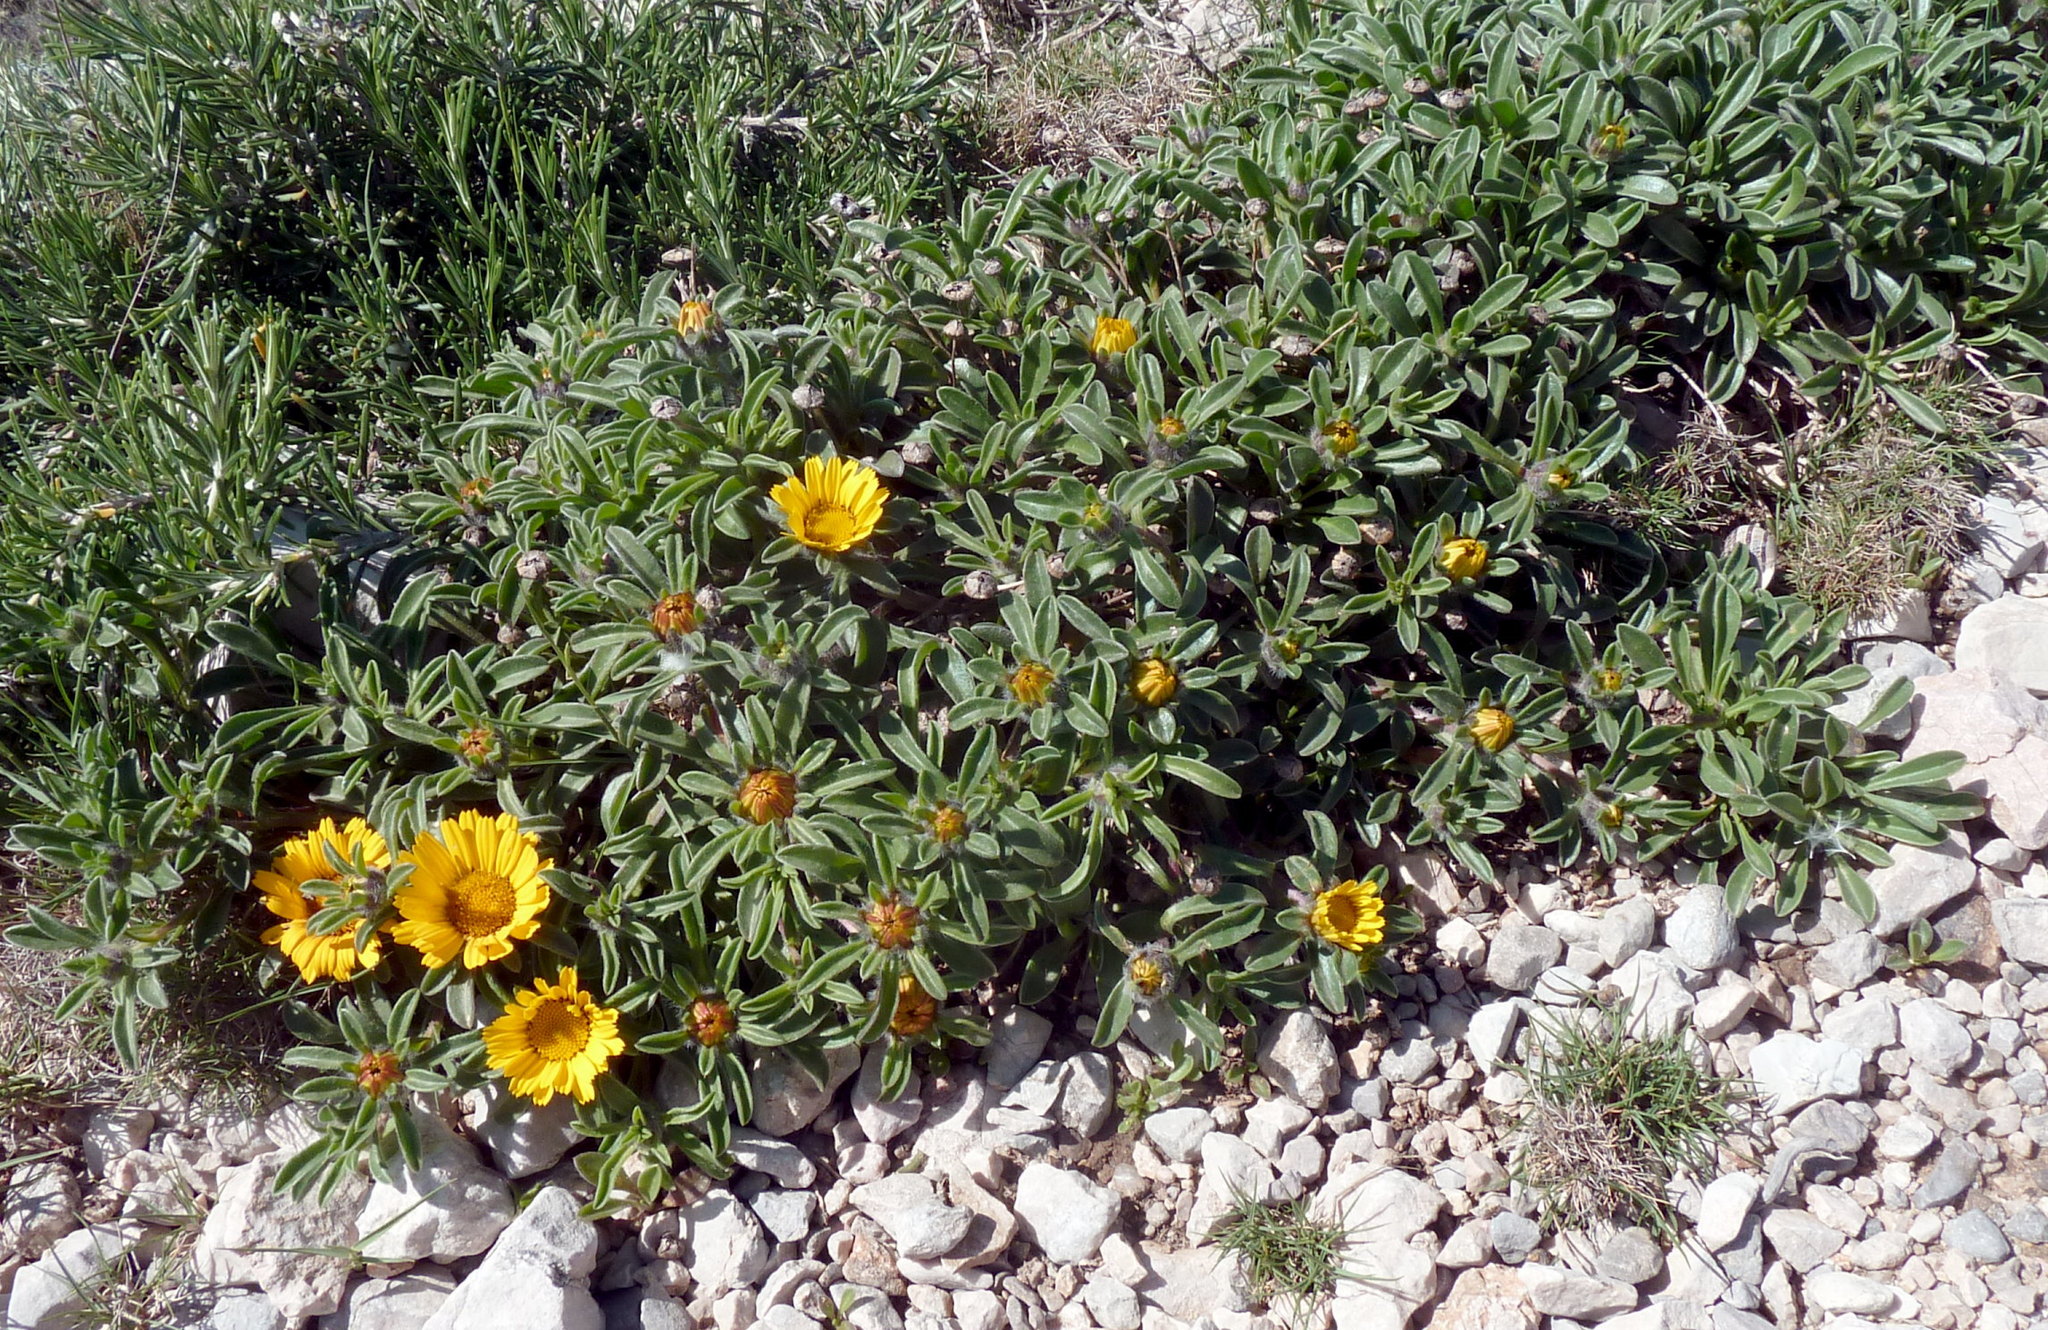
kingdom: Plantae
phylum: Tracheophyta
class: Magnoliopsida
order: Asterales
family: Asteraceae
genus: Pallenis
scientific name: Pallenis maritima
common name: Golden coin daisy
